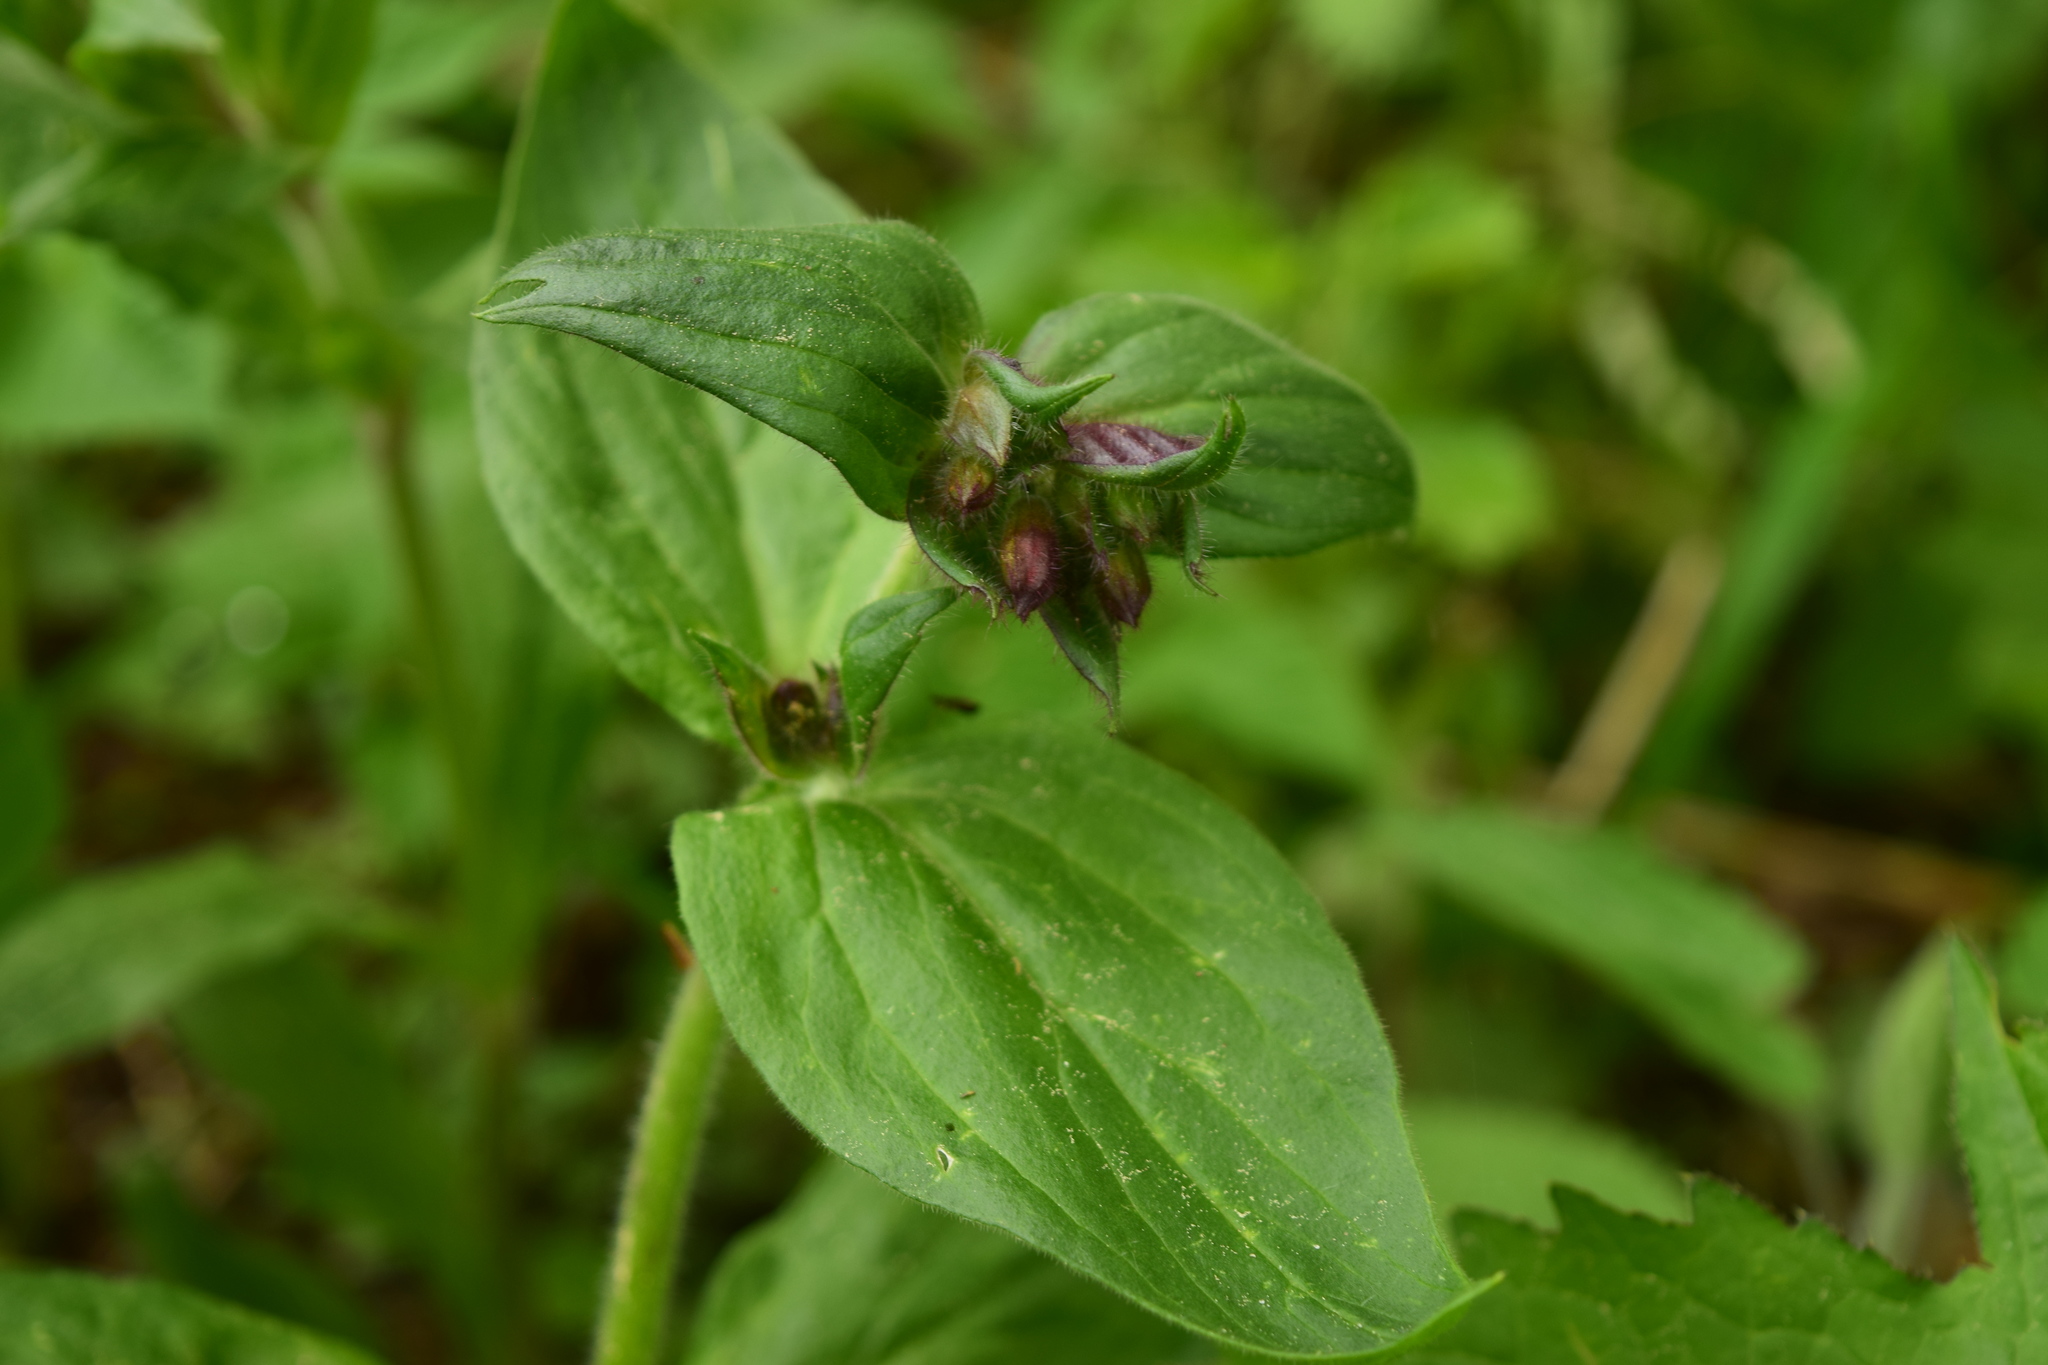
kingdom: Plantae
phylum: Tracheophyta
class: Magnoliopsida
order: Caryophyllales
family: Caryophyllaceae
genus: Silene
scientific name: Silene dioica
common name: Red campion
